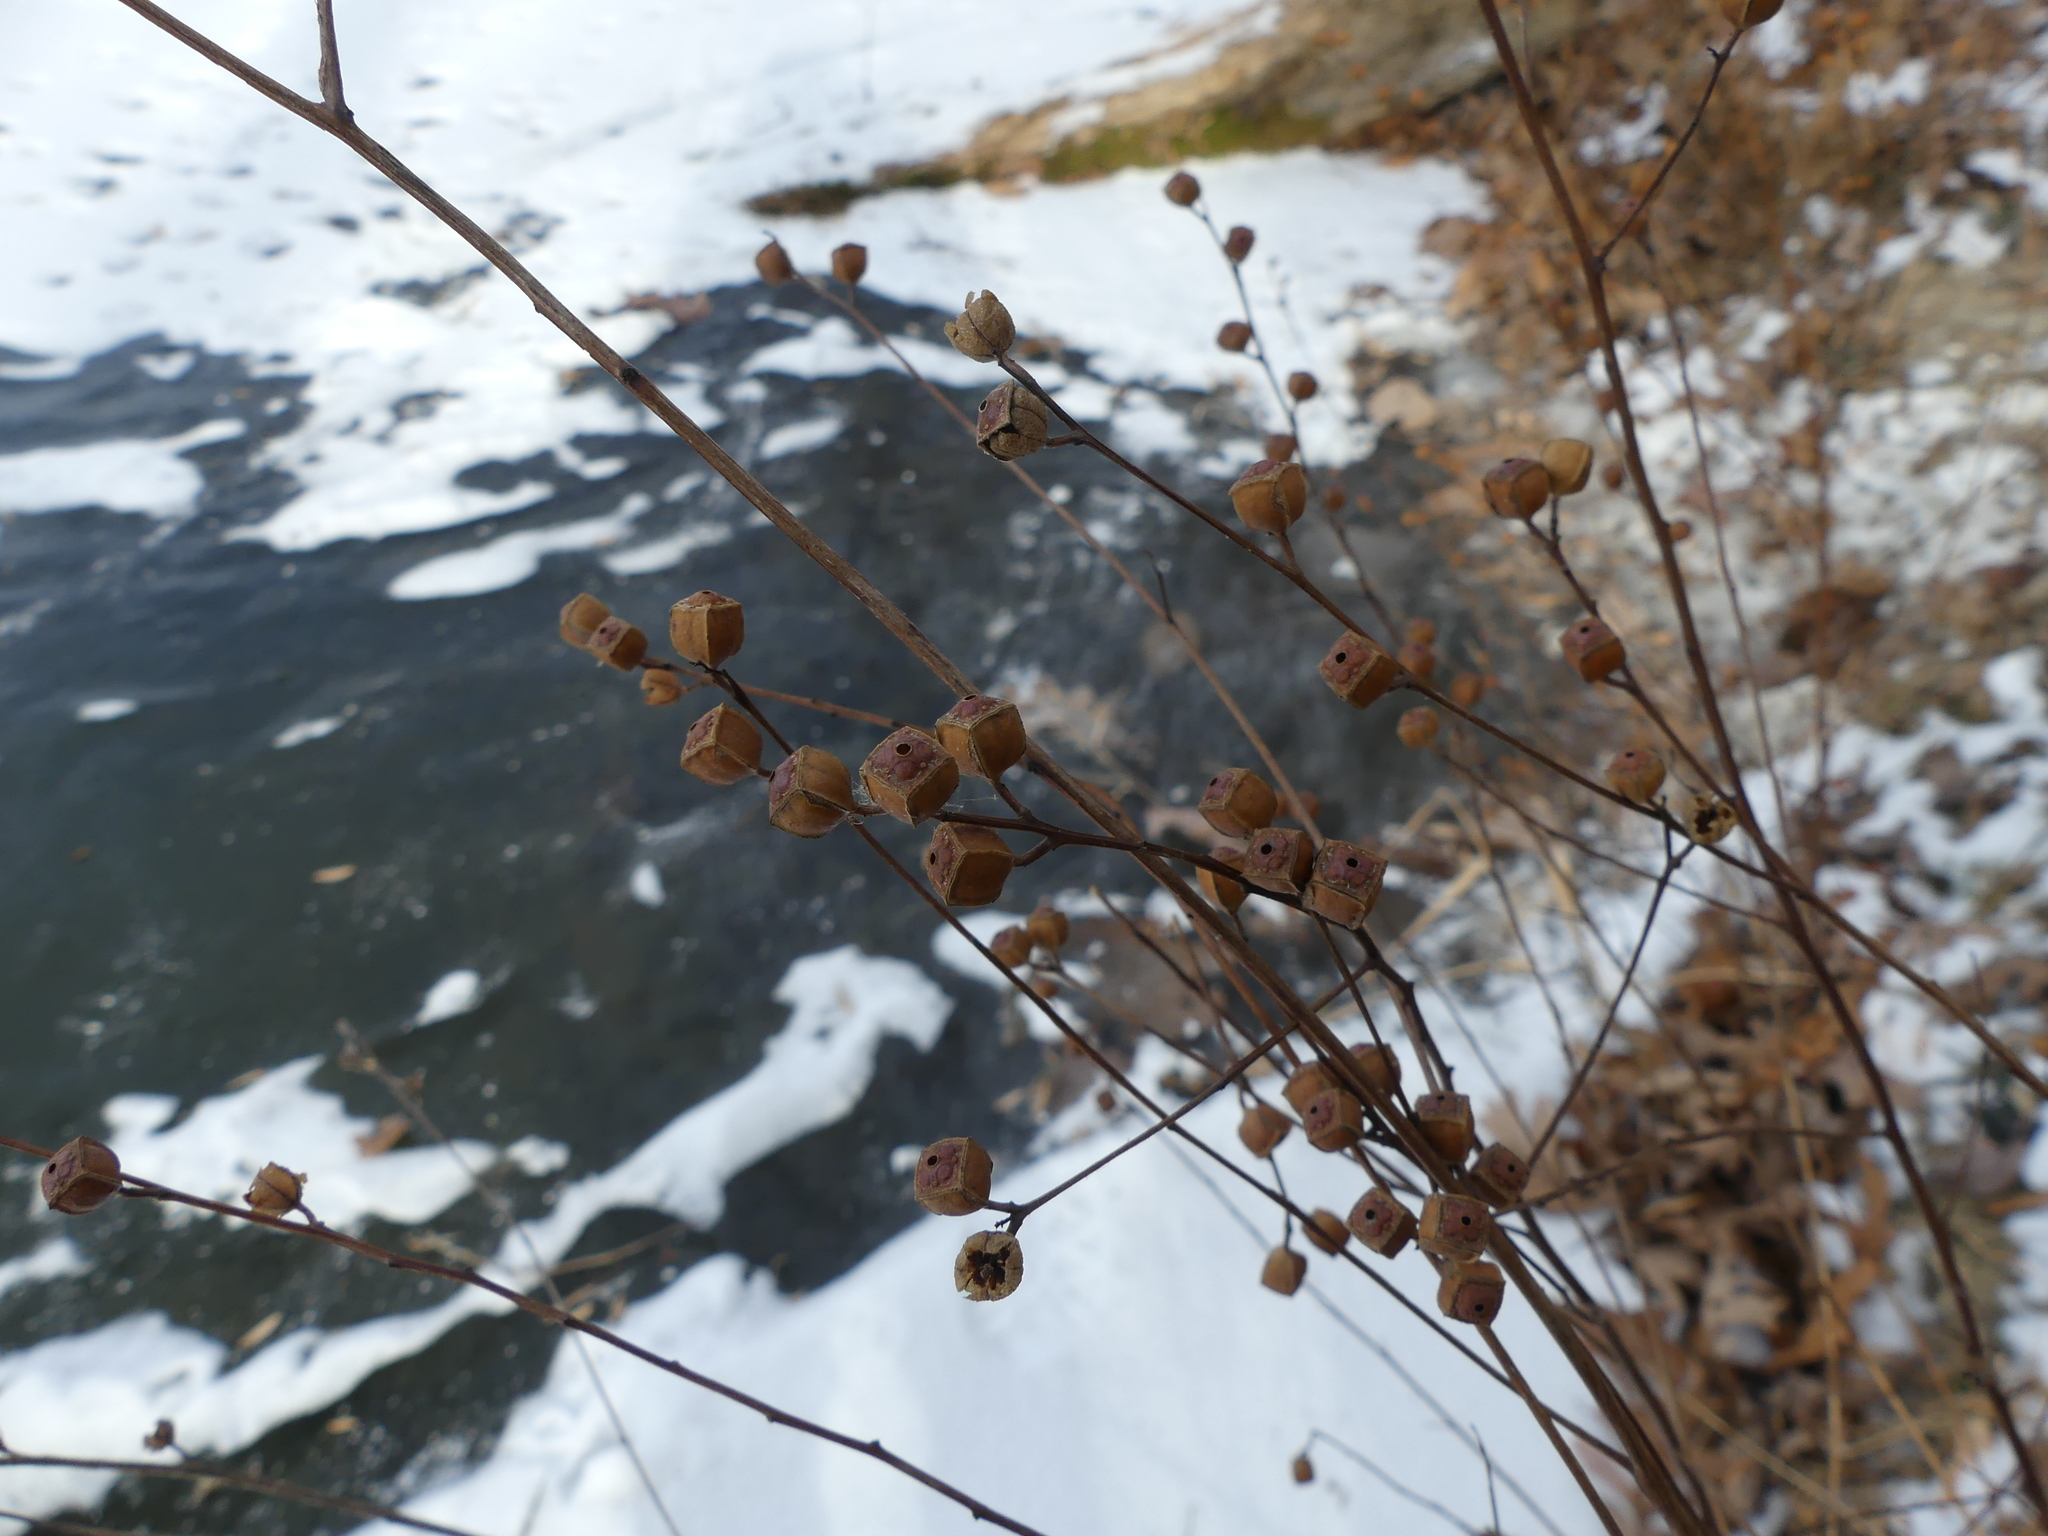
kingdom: Plantae
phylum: Tracheophyta
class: Magnoliopsida
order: Myrtales
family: Onagraceae
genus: Ludwigia
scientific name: Ludwigia alternifolia
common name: Rattlebox
